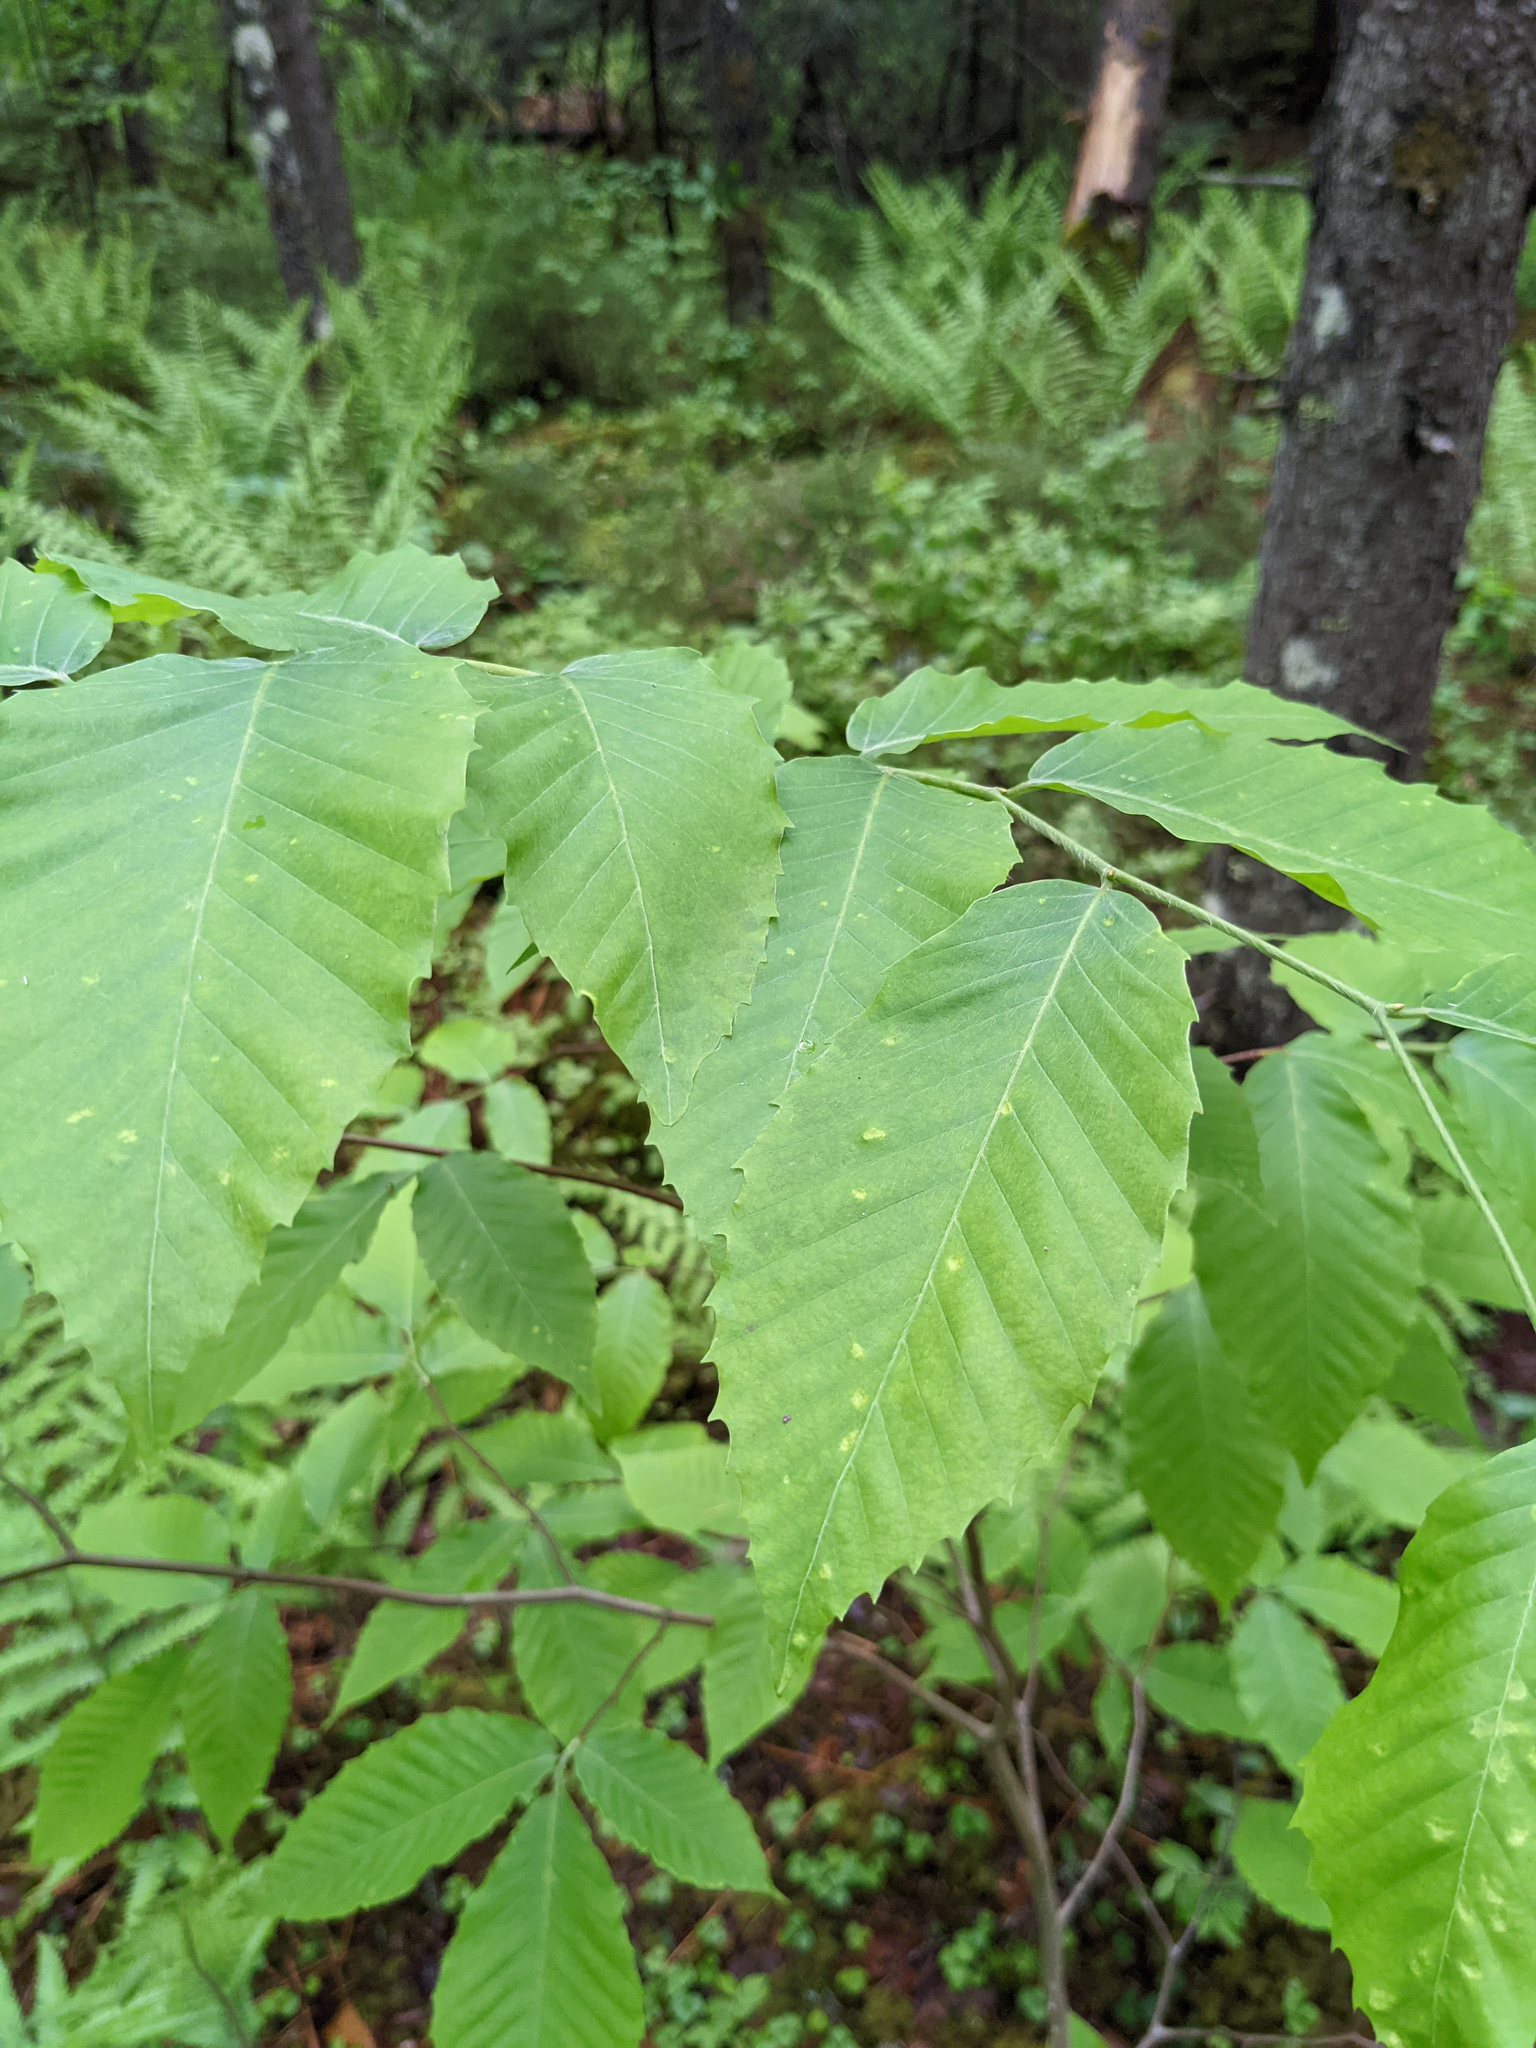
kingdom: Plantae
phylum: Tracheophyta
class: Magnoliopsida
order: Fagales
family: Fagaceae
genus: Fagus
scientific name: Fagus grandifolia
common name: American beech
